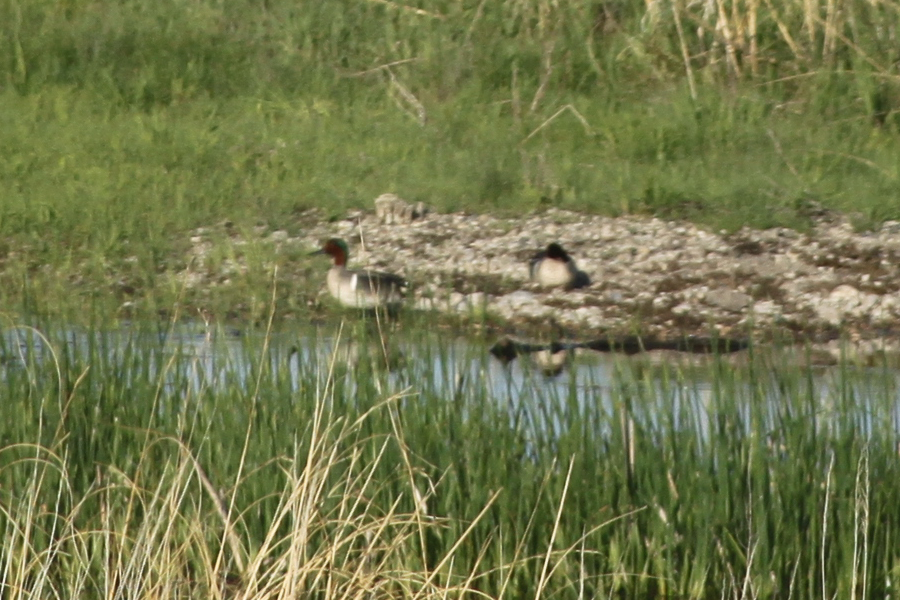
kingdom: Animalia
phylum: Chordata
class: Aves
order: Anseriformes
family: Anatidae
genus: Anas
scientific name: Anas crecca
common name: Eurasian teal
